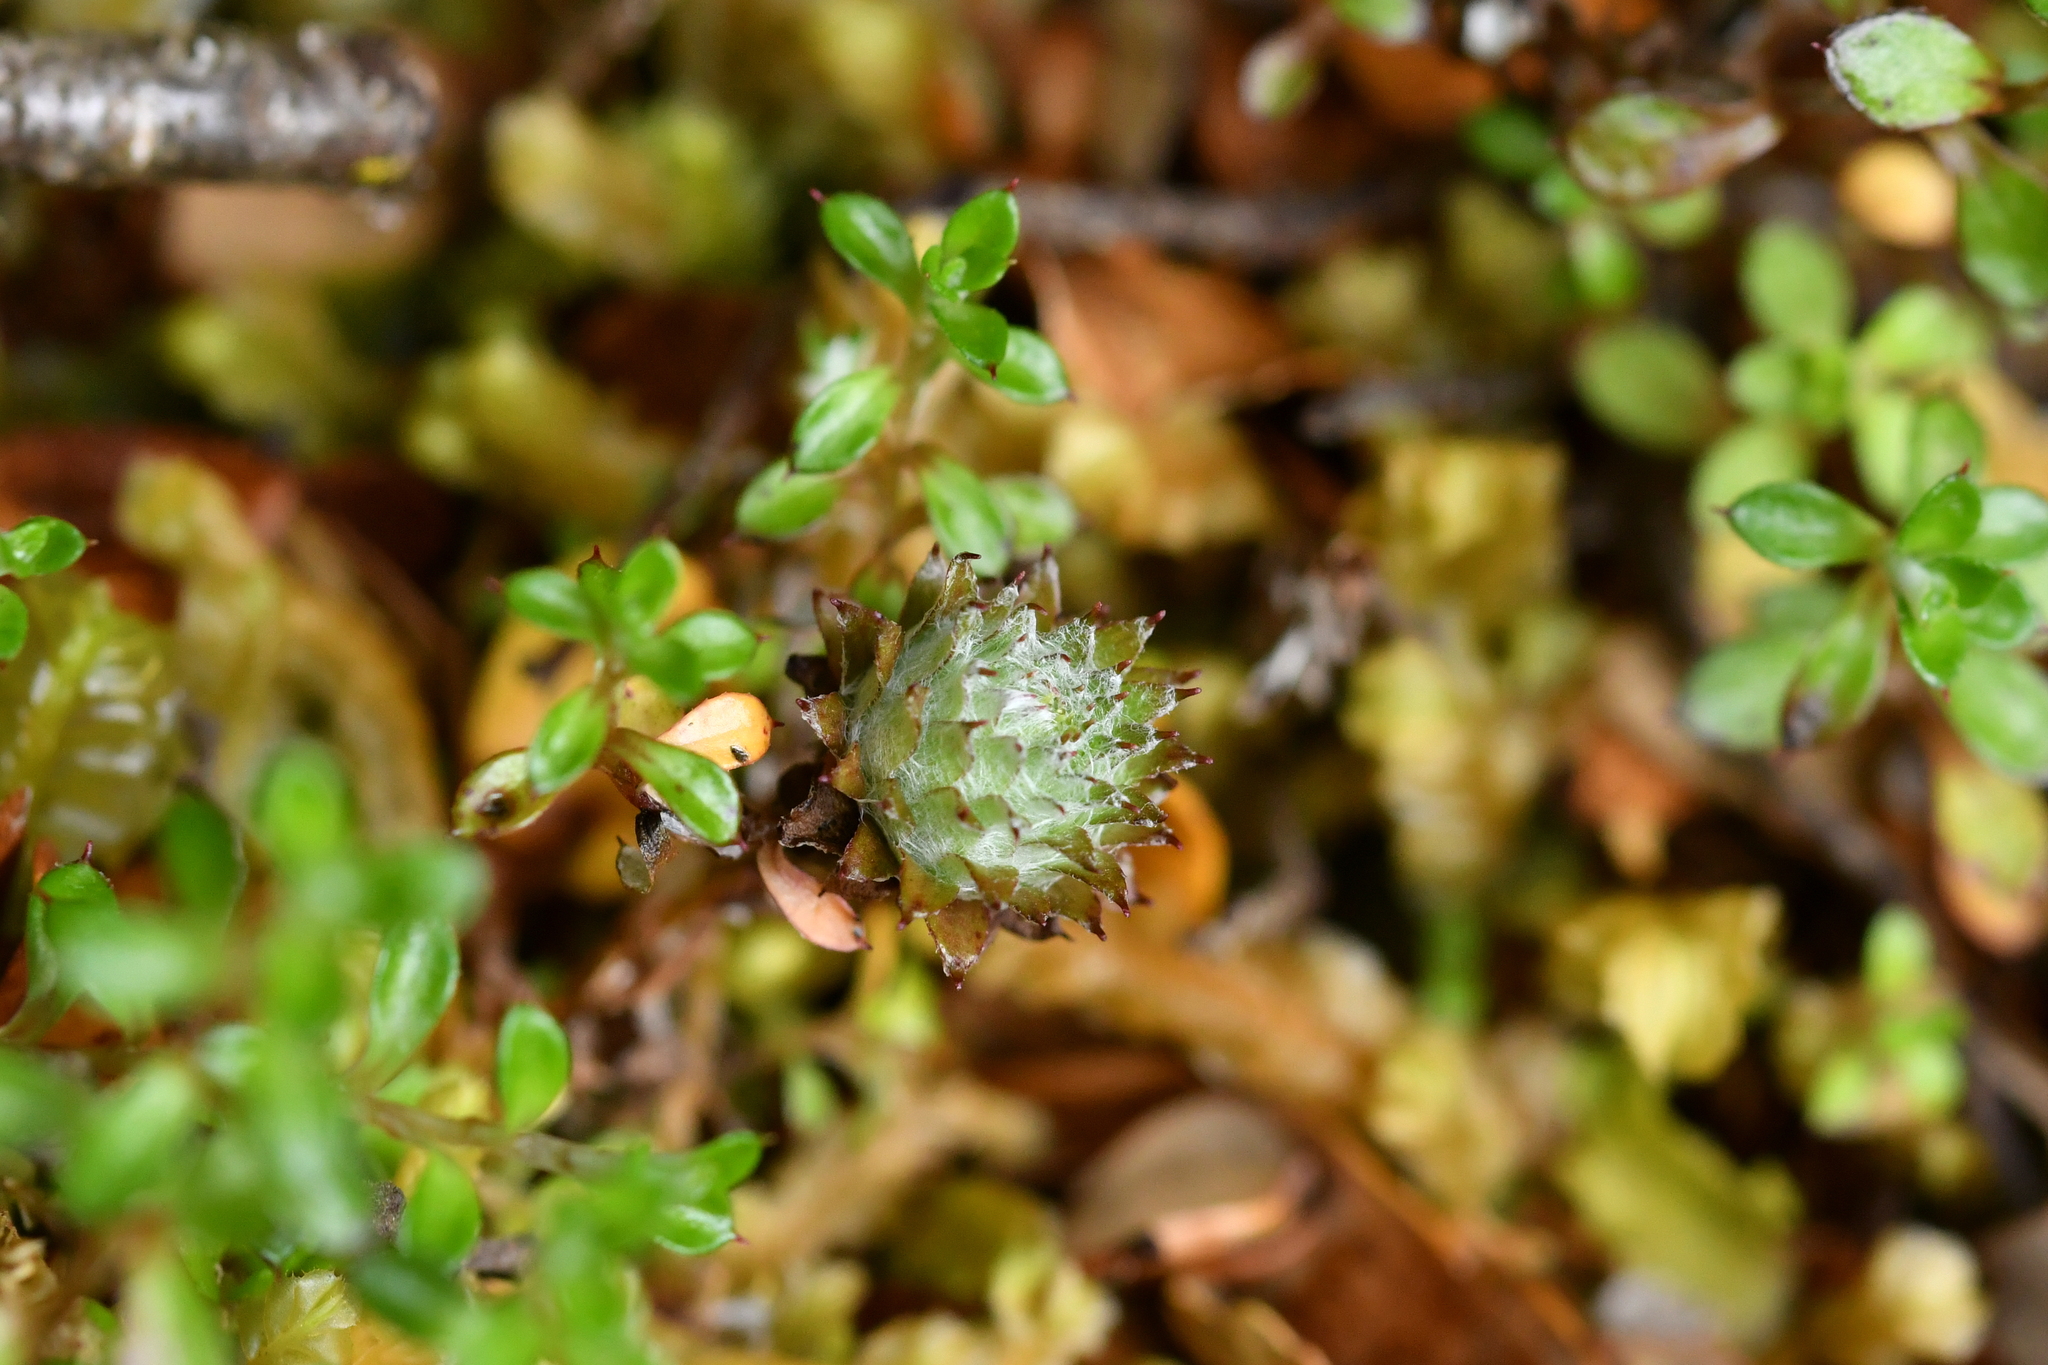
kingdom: Plantae
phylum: Tracheophyta
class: Magnoliopsida
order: Asterales
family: Asteraceae
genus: Anaphalioides
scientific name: Anaphalioides bellidioides
